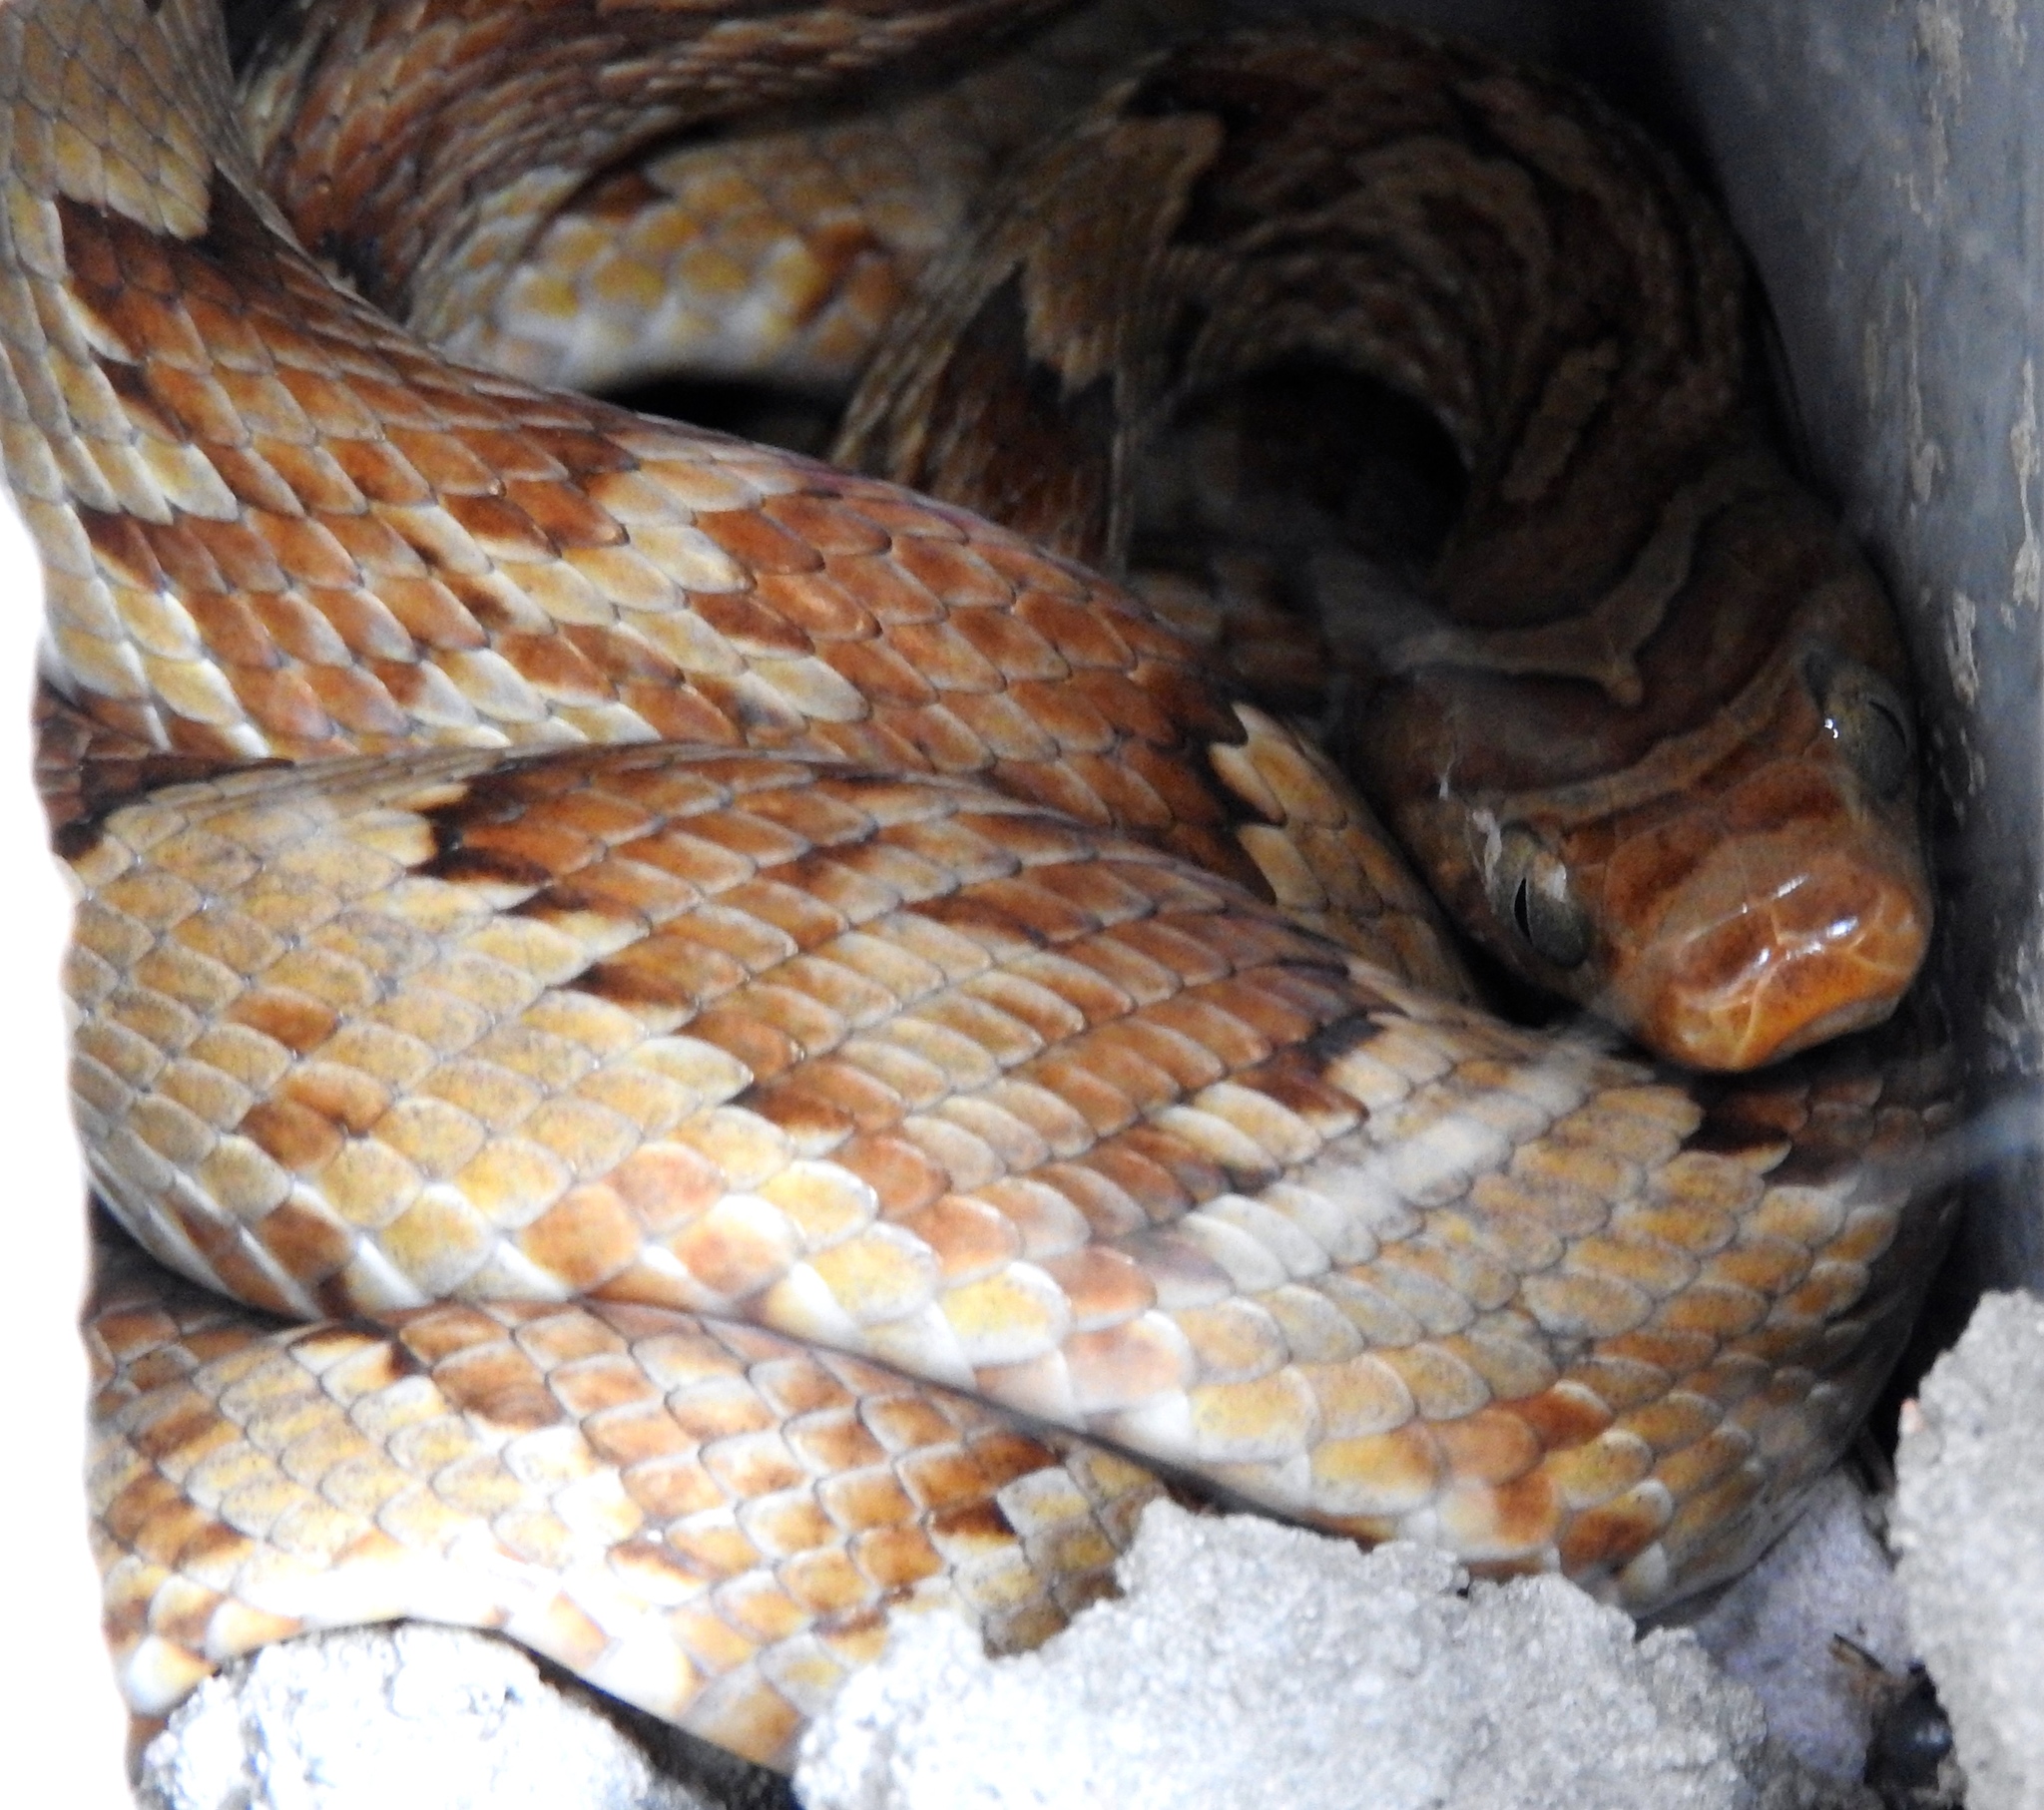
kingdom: Animalia
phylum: Chordata
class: Squamata
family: Colubridae
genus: Trimorphodon
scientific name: Trimorphodon paucimaculatus
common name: Sinaloan lyresnake
